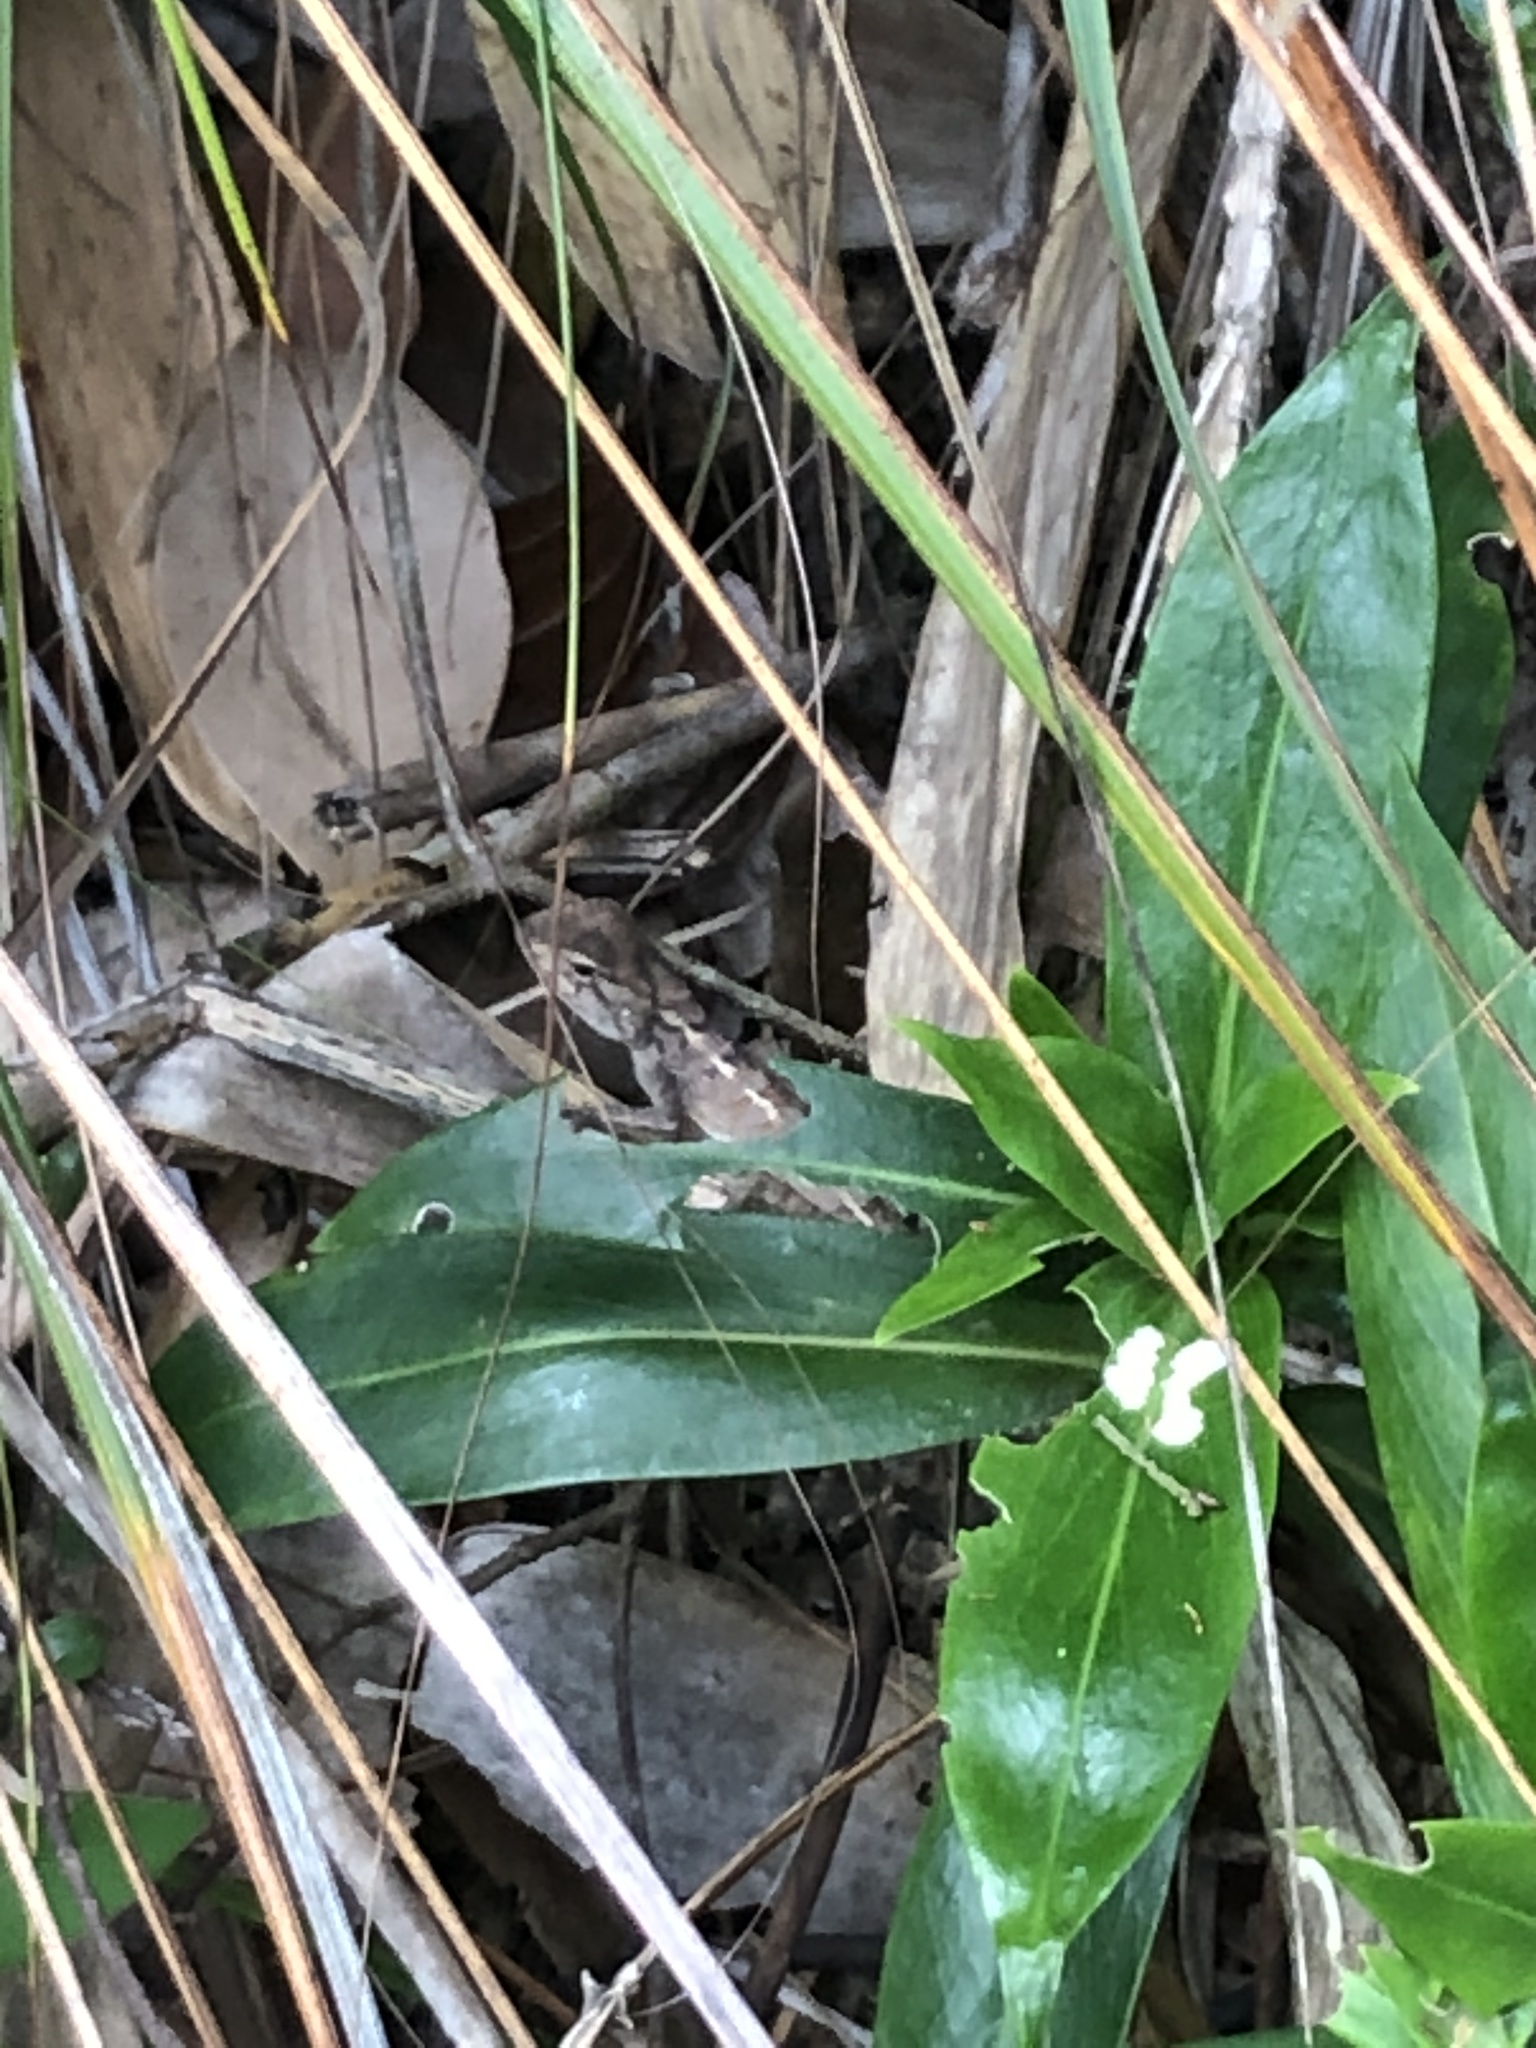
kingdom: Animalia
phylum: Chordata
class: Squamata
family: Agamidae
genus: Calotes
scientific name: Calotes versicolor
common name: Oriental garden lizard
